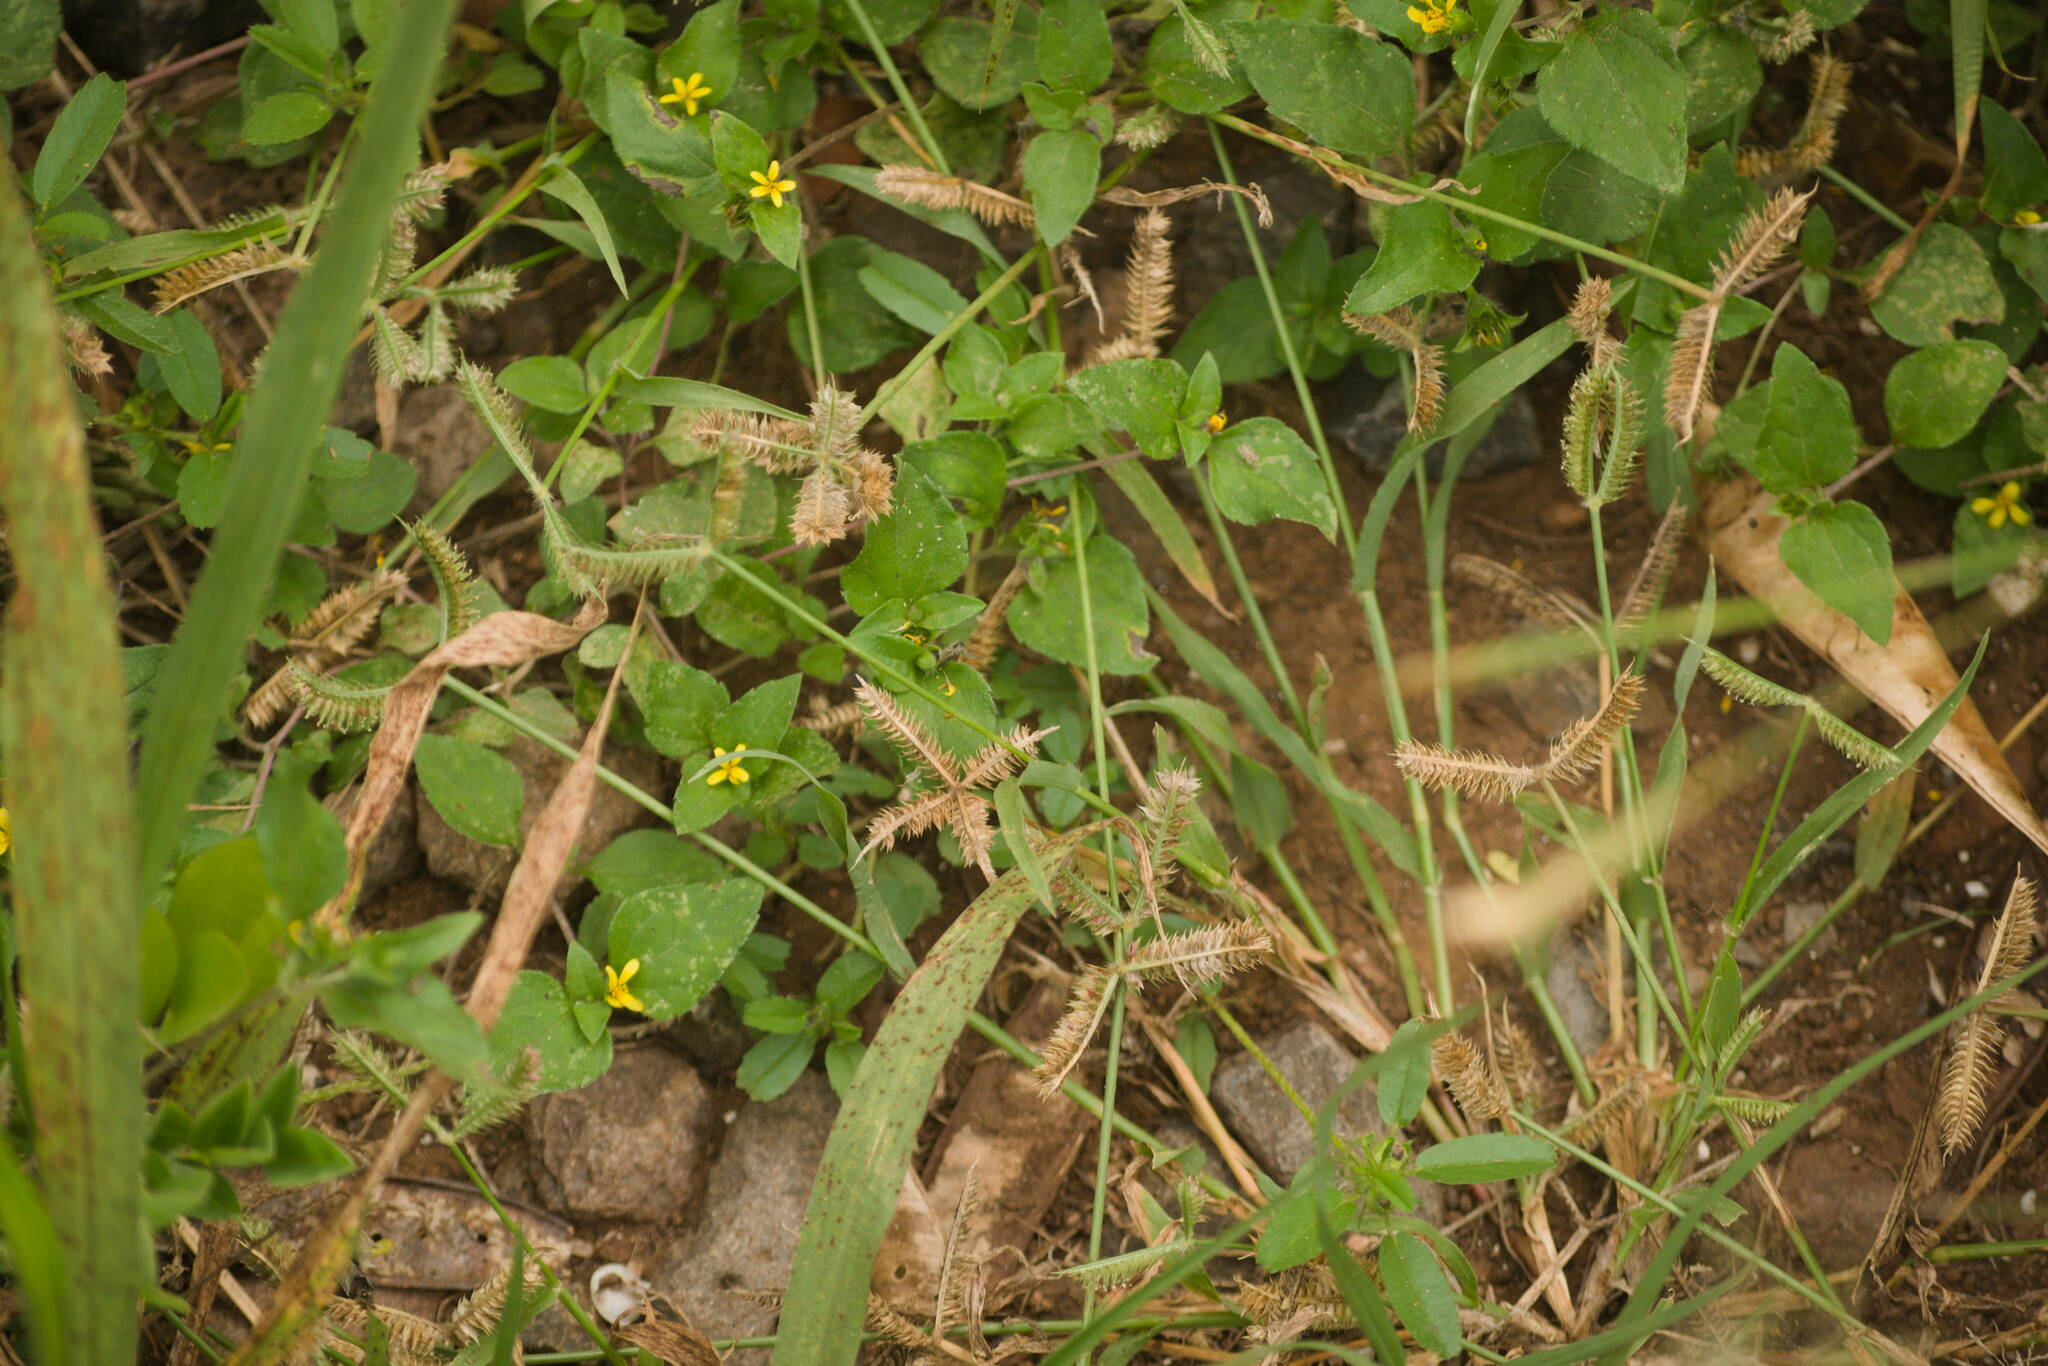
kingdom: Plantae
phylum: Tracheophyta
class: Liliopsida
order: Poales
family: Poaceae
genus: Dactyloctenium
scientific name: Dactyloctenium aegyptium
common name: Egyptian grass
